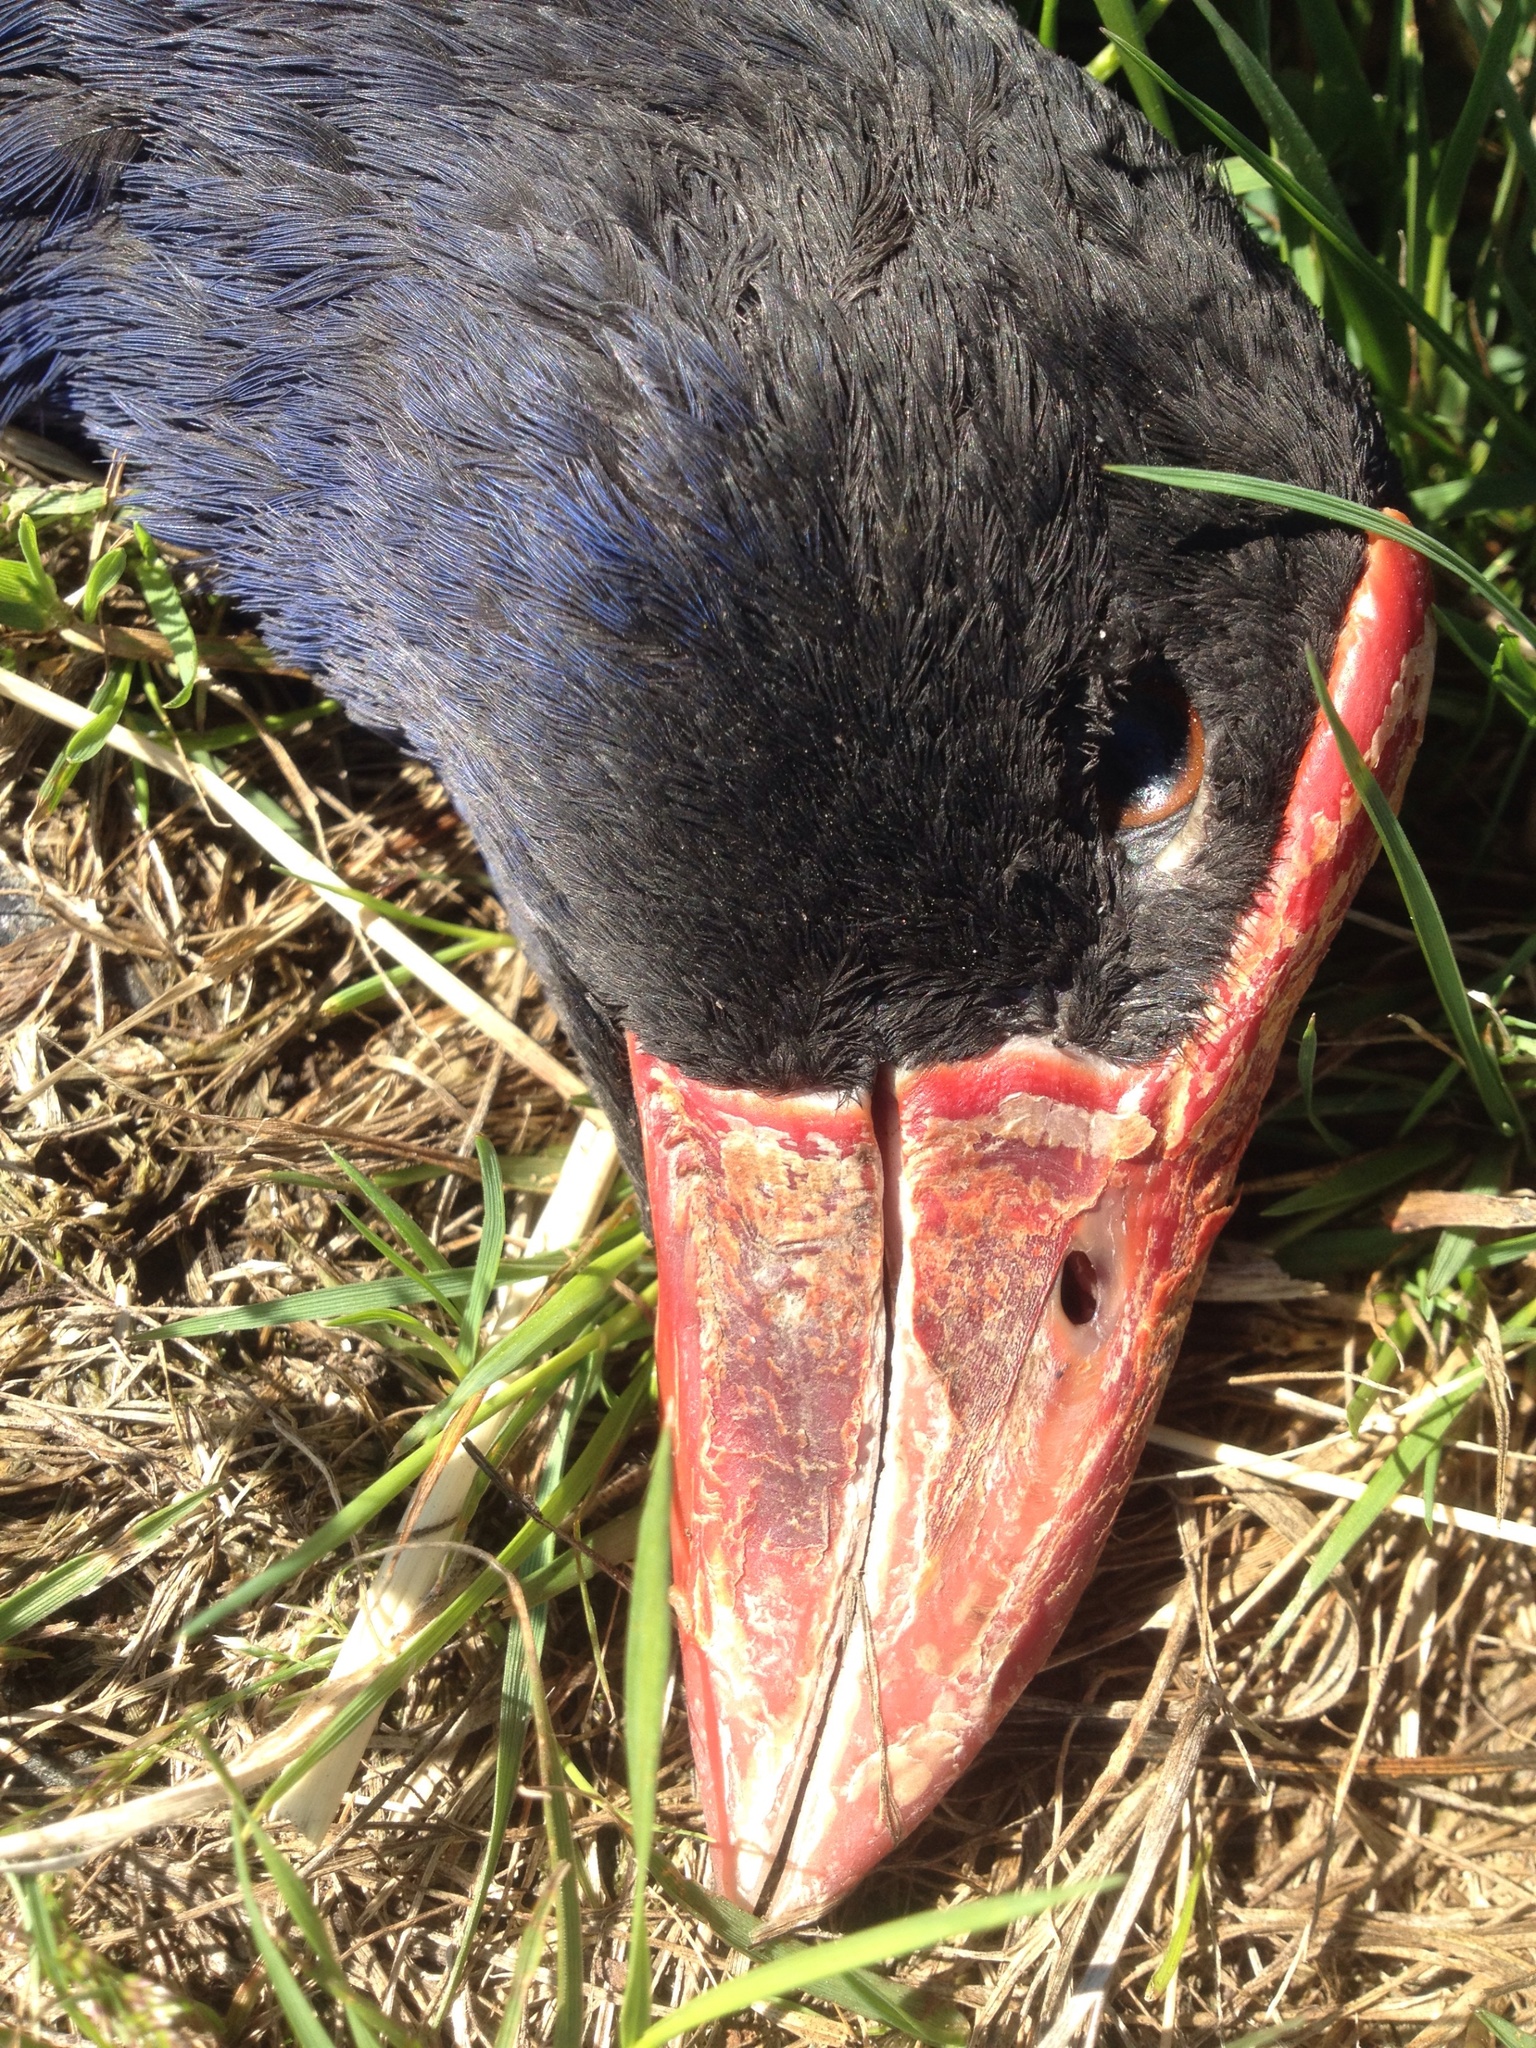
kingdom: Animalia
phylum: Chordata
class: Aves
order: Gruiformes
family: Rallidae
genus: Porphyrio
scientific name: Porphyrio melanotus
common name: Australasian swamphen
